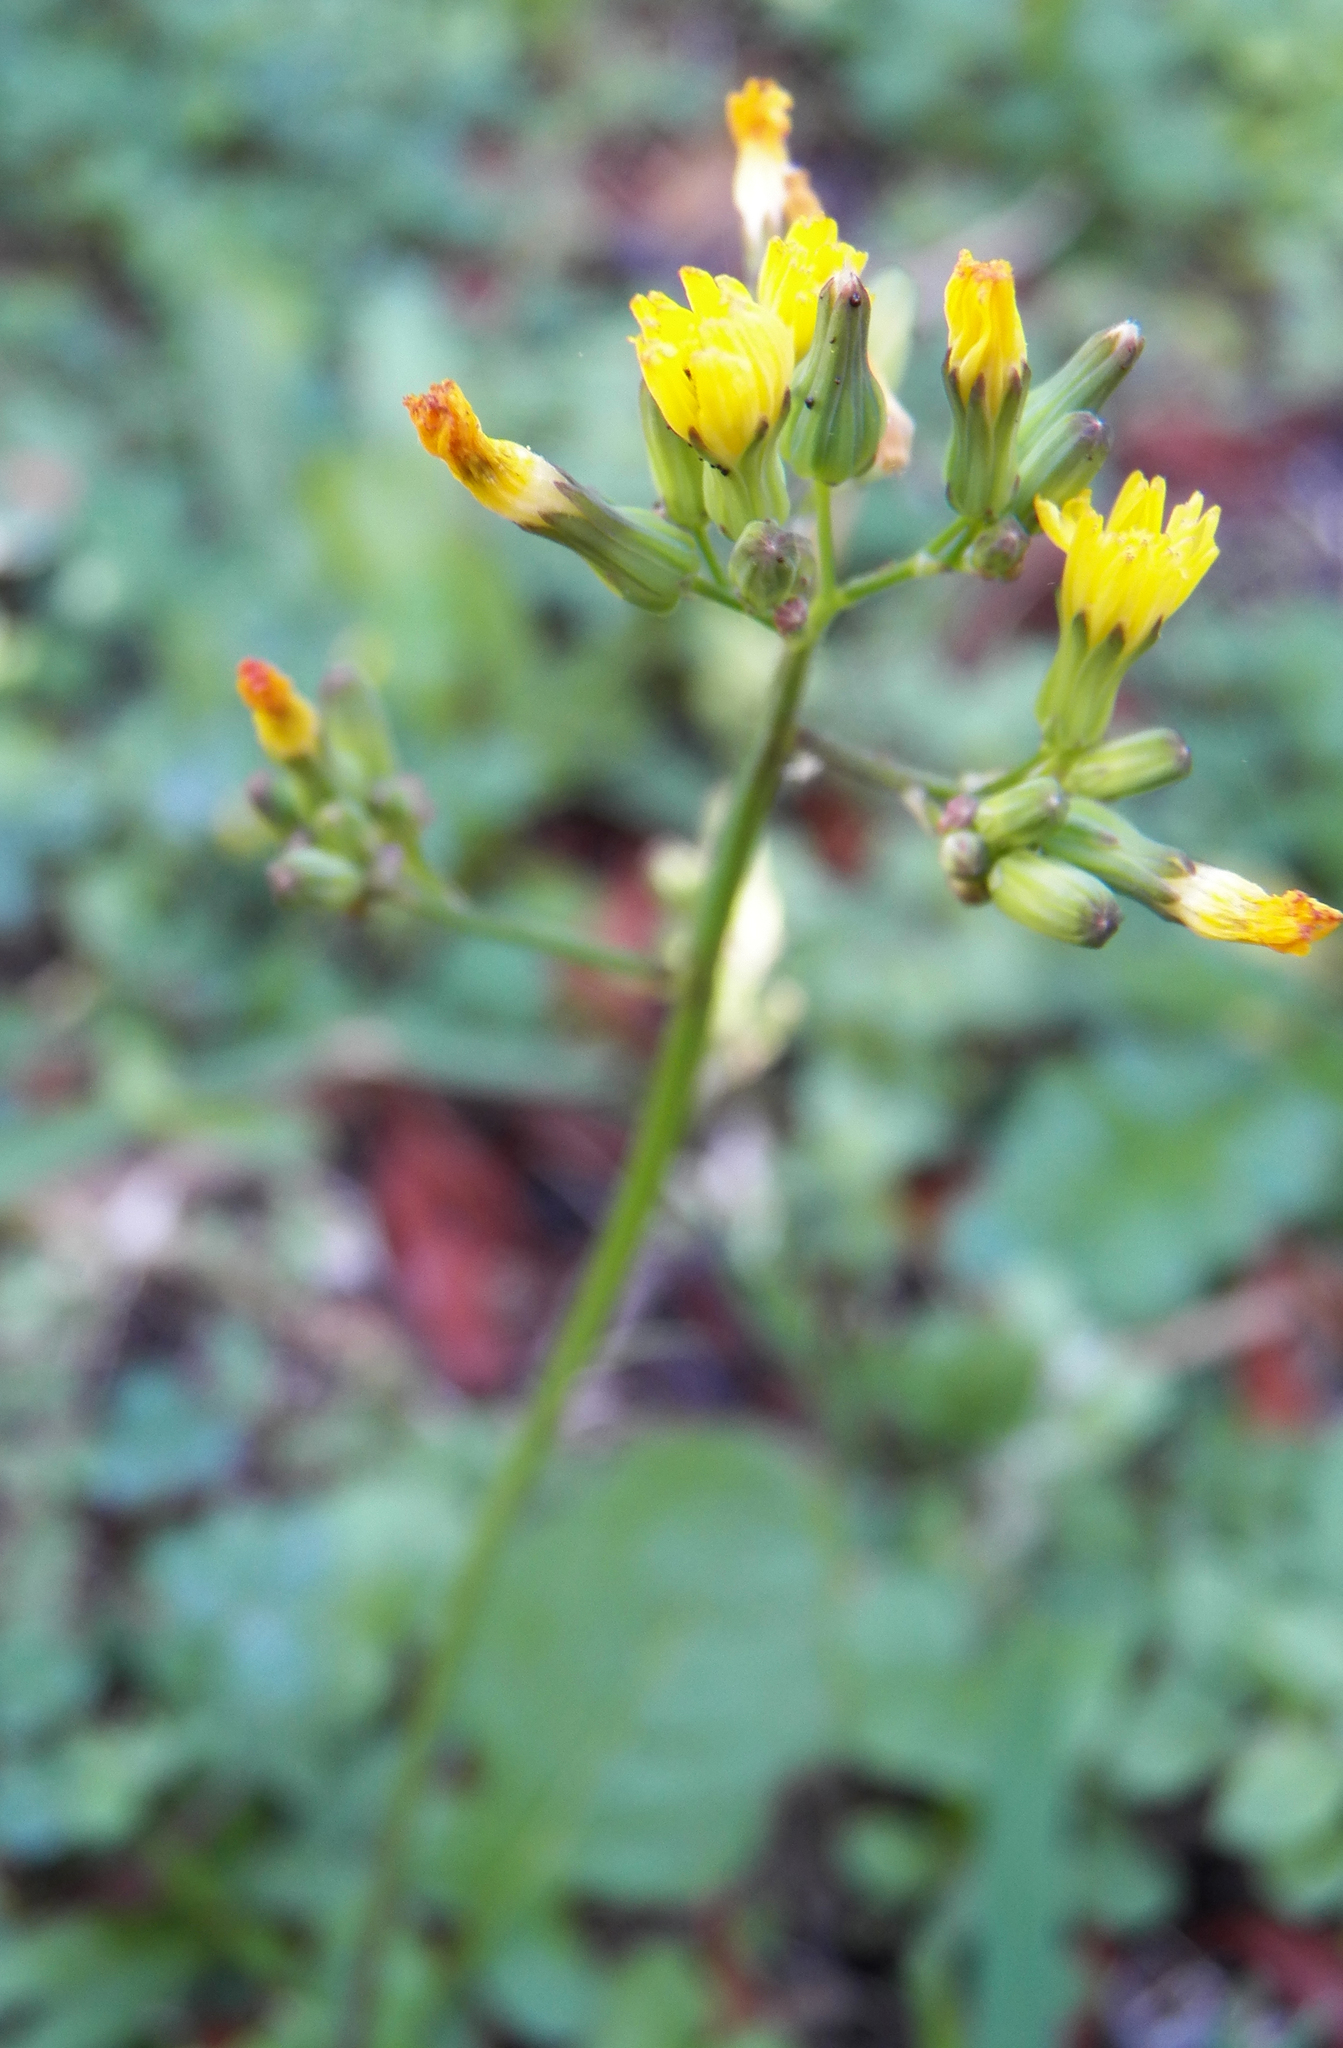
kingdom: Plantae
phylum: Tracheophyta
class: Magnoliopsida
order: Asterales
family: Asteraceae
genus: Youngia
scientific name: Youngia japonica
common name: Oriental false hawksbeard
